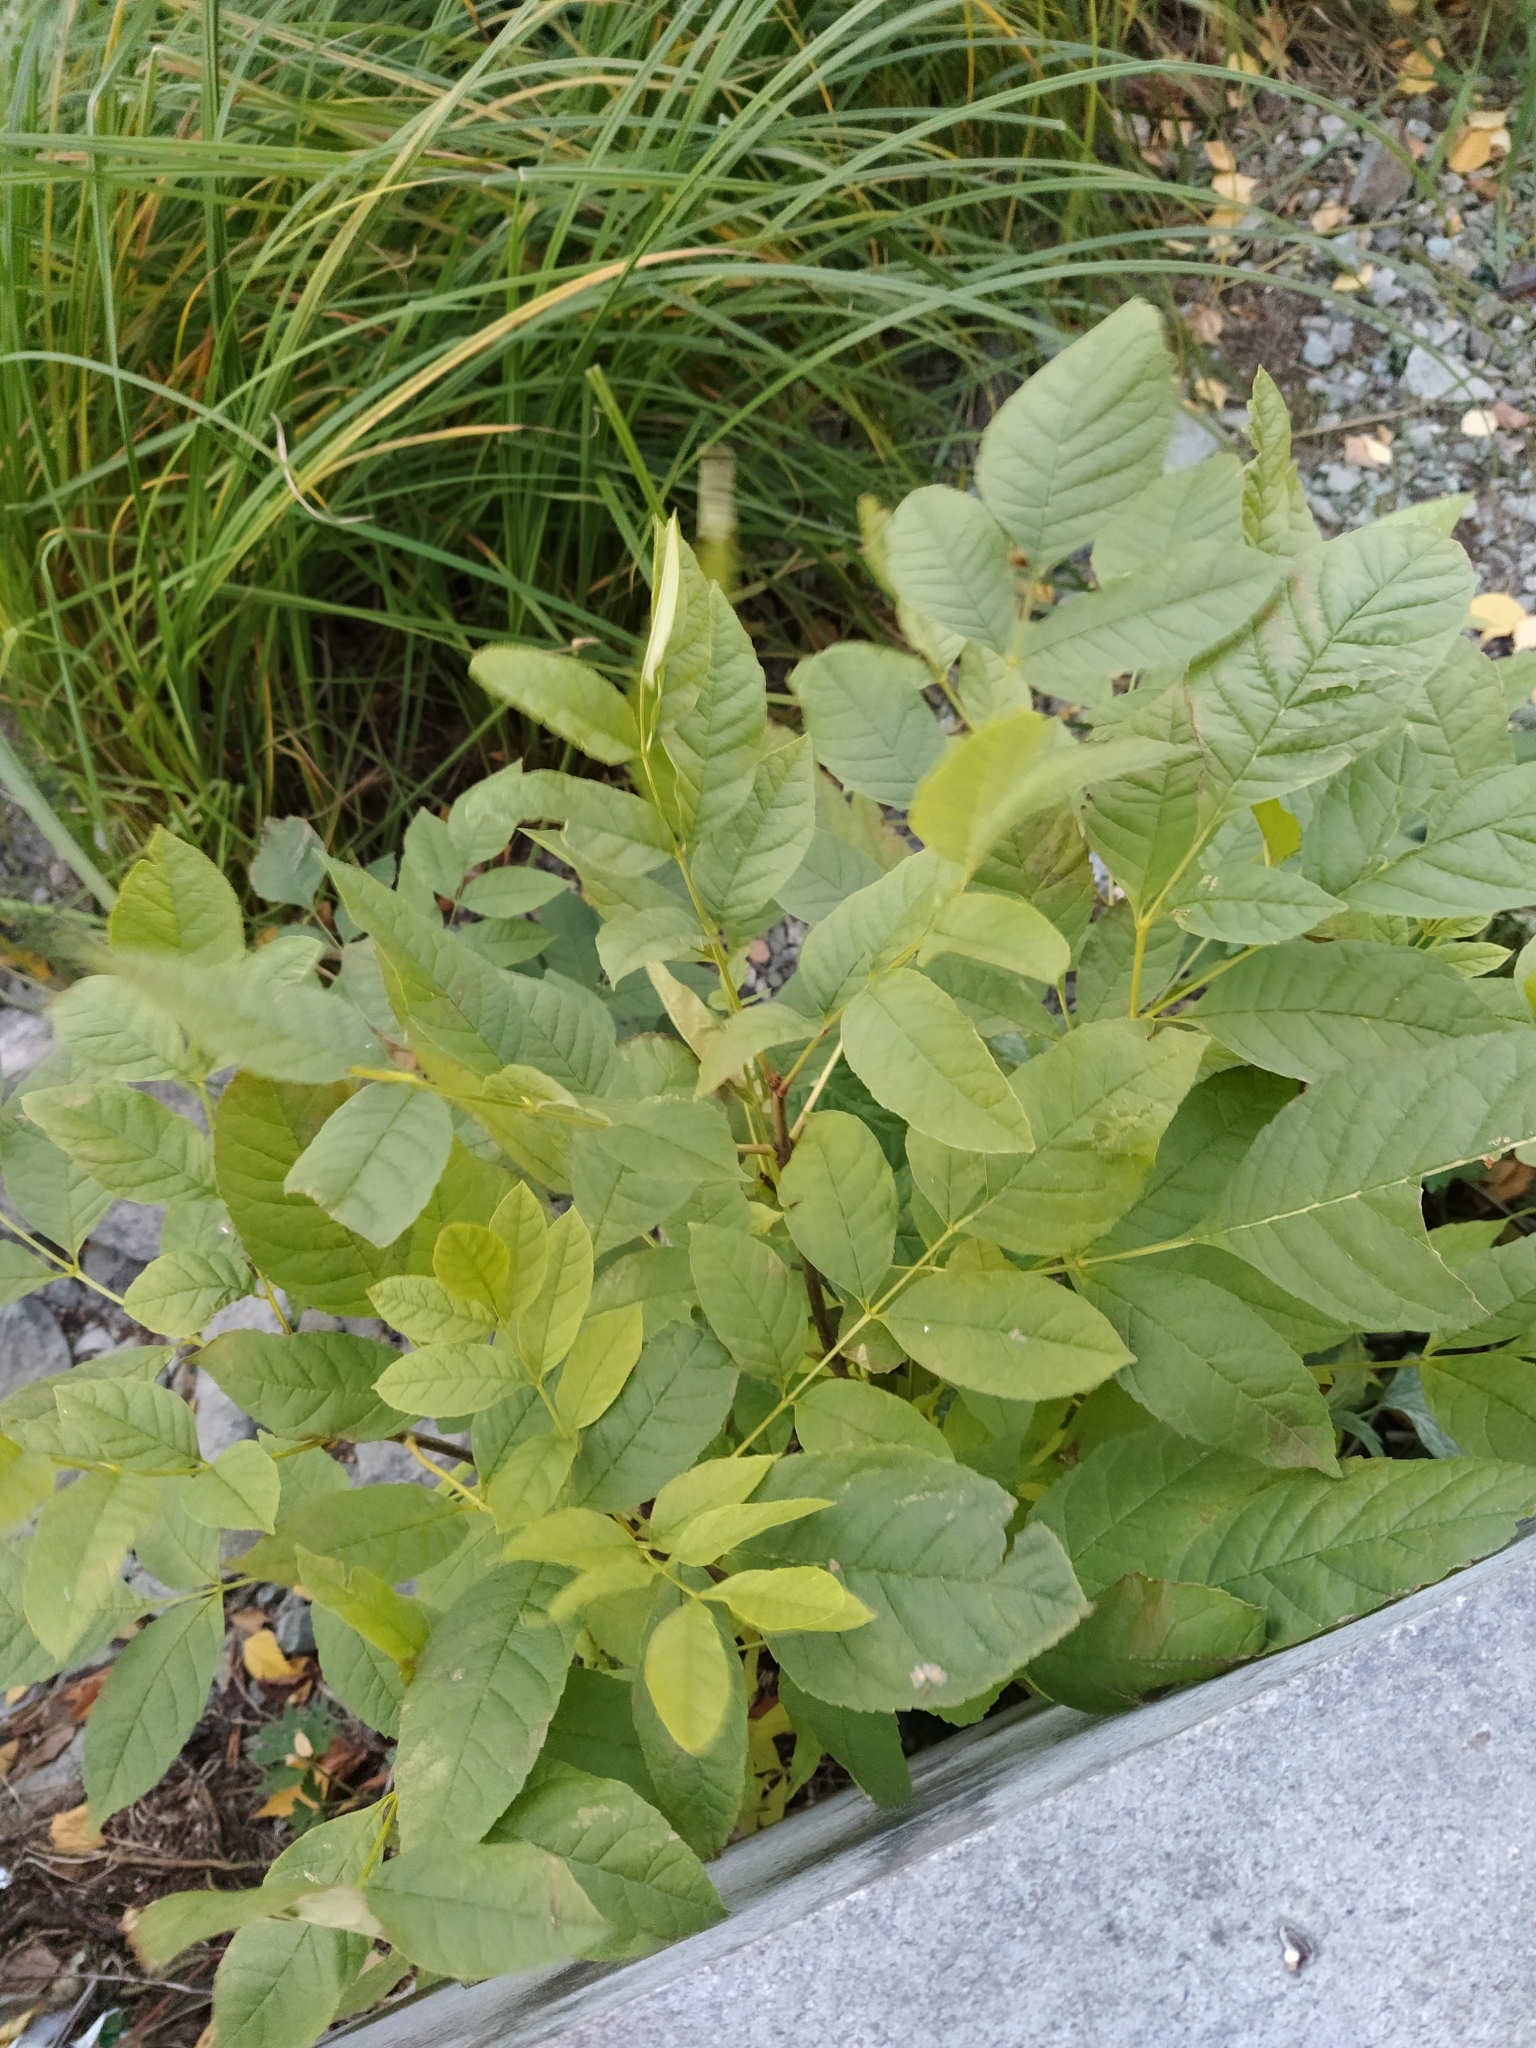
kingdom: Plantae
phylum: Tracheophyta
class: Magnoliopsida
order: Lamiales
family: Oleaceae
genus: Fraxinus
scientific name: Fraxinus pennsylvanica
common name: Green ash
